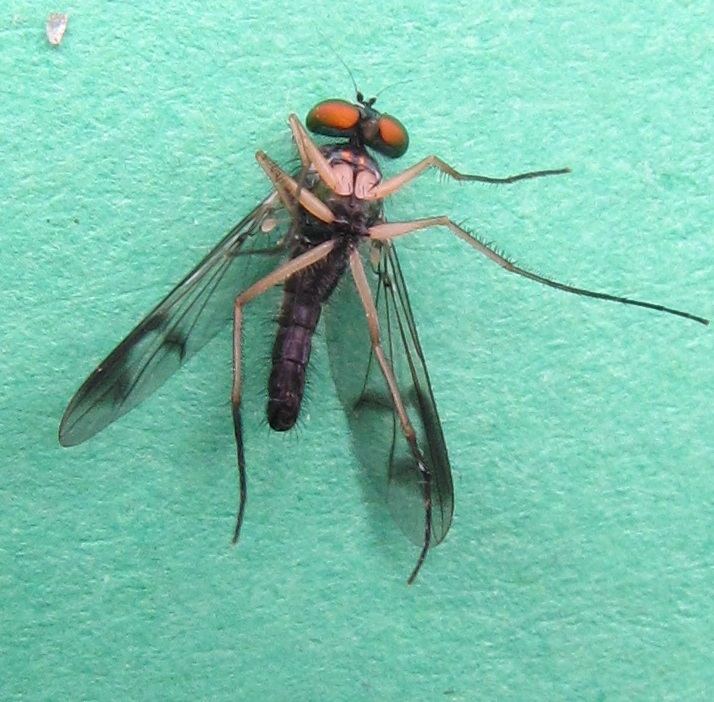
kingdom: Animalia
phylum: Arthropoda
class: Insecta
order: Diptera
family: Dolichopodidae
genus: Condylostylus
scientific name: Condylostylus
